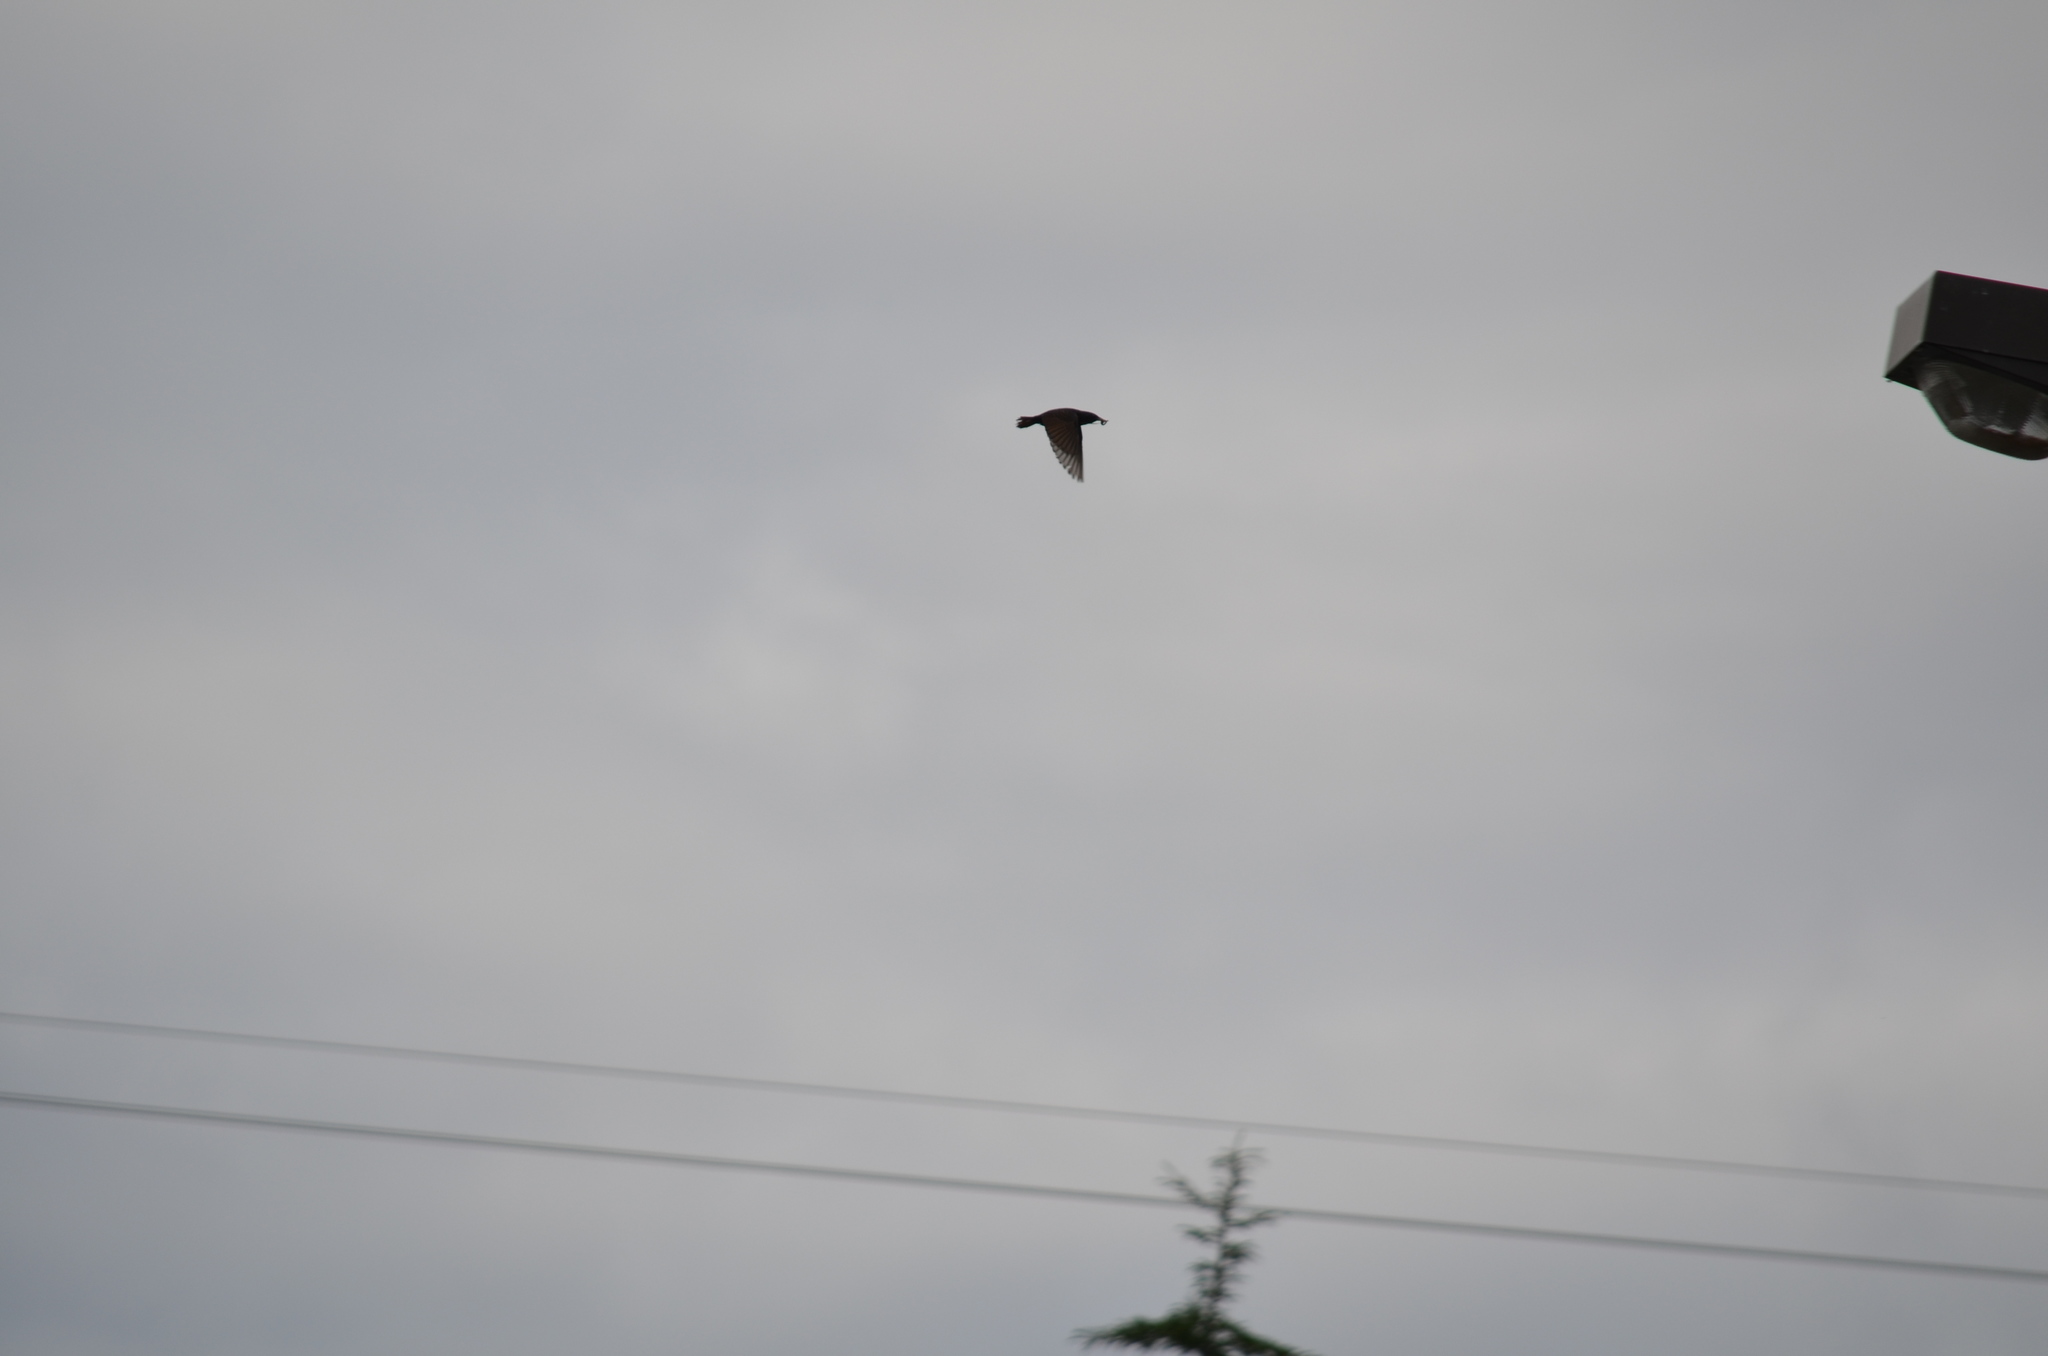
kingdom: Animalia
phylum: Chordata
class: Aves
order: Passeriformes
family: Sturnidae
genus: Sturnus
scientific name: Sturnus vulgaris
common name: Common starling
